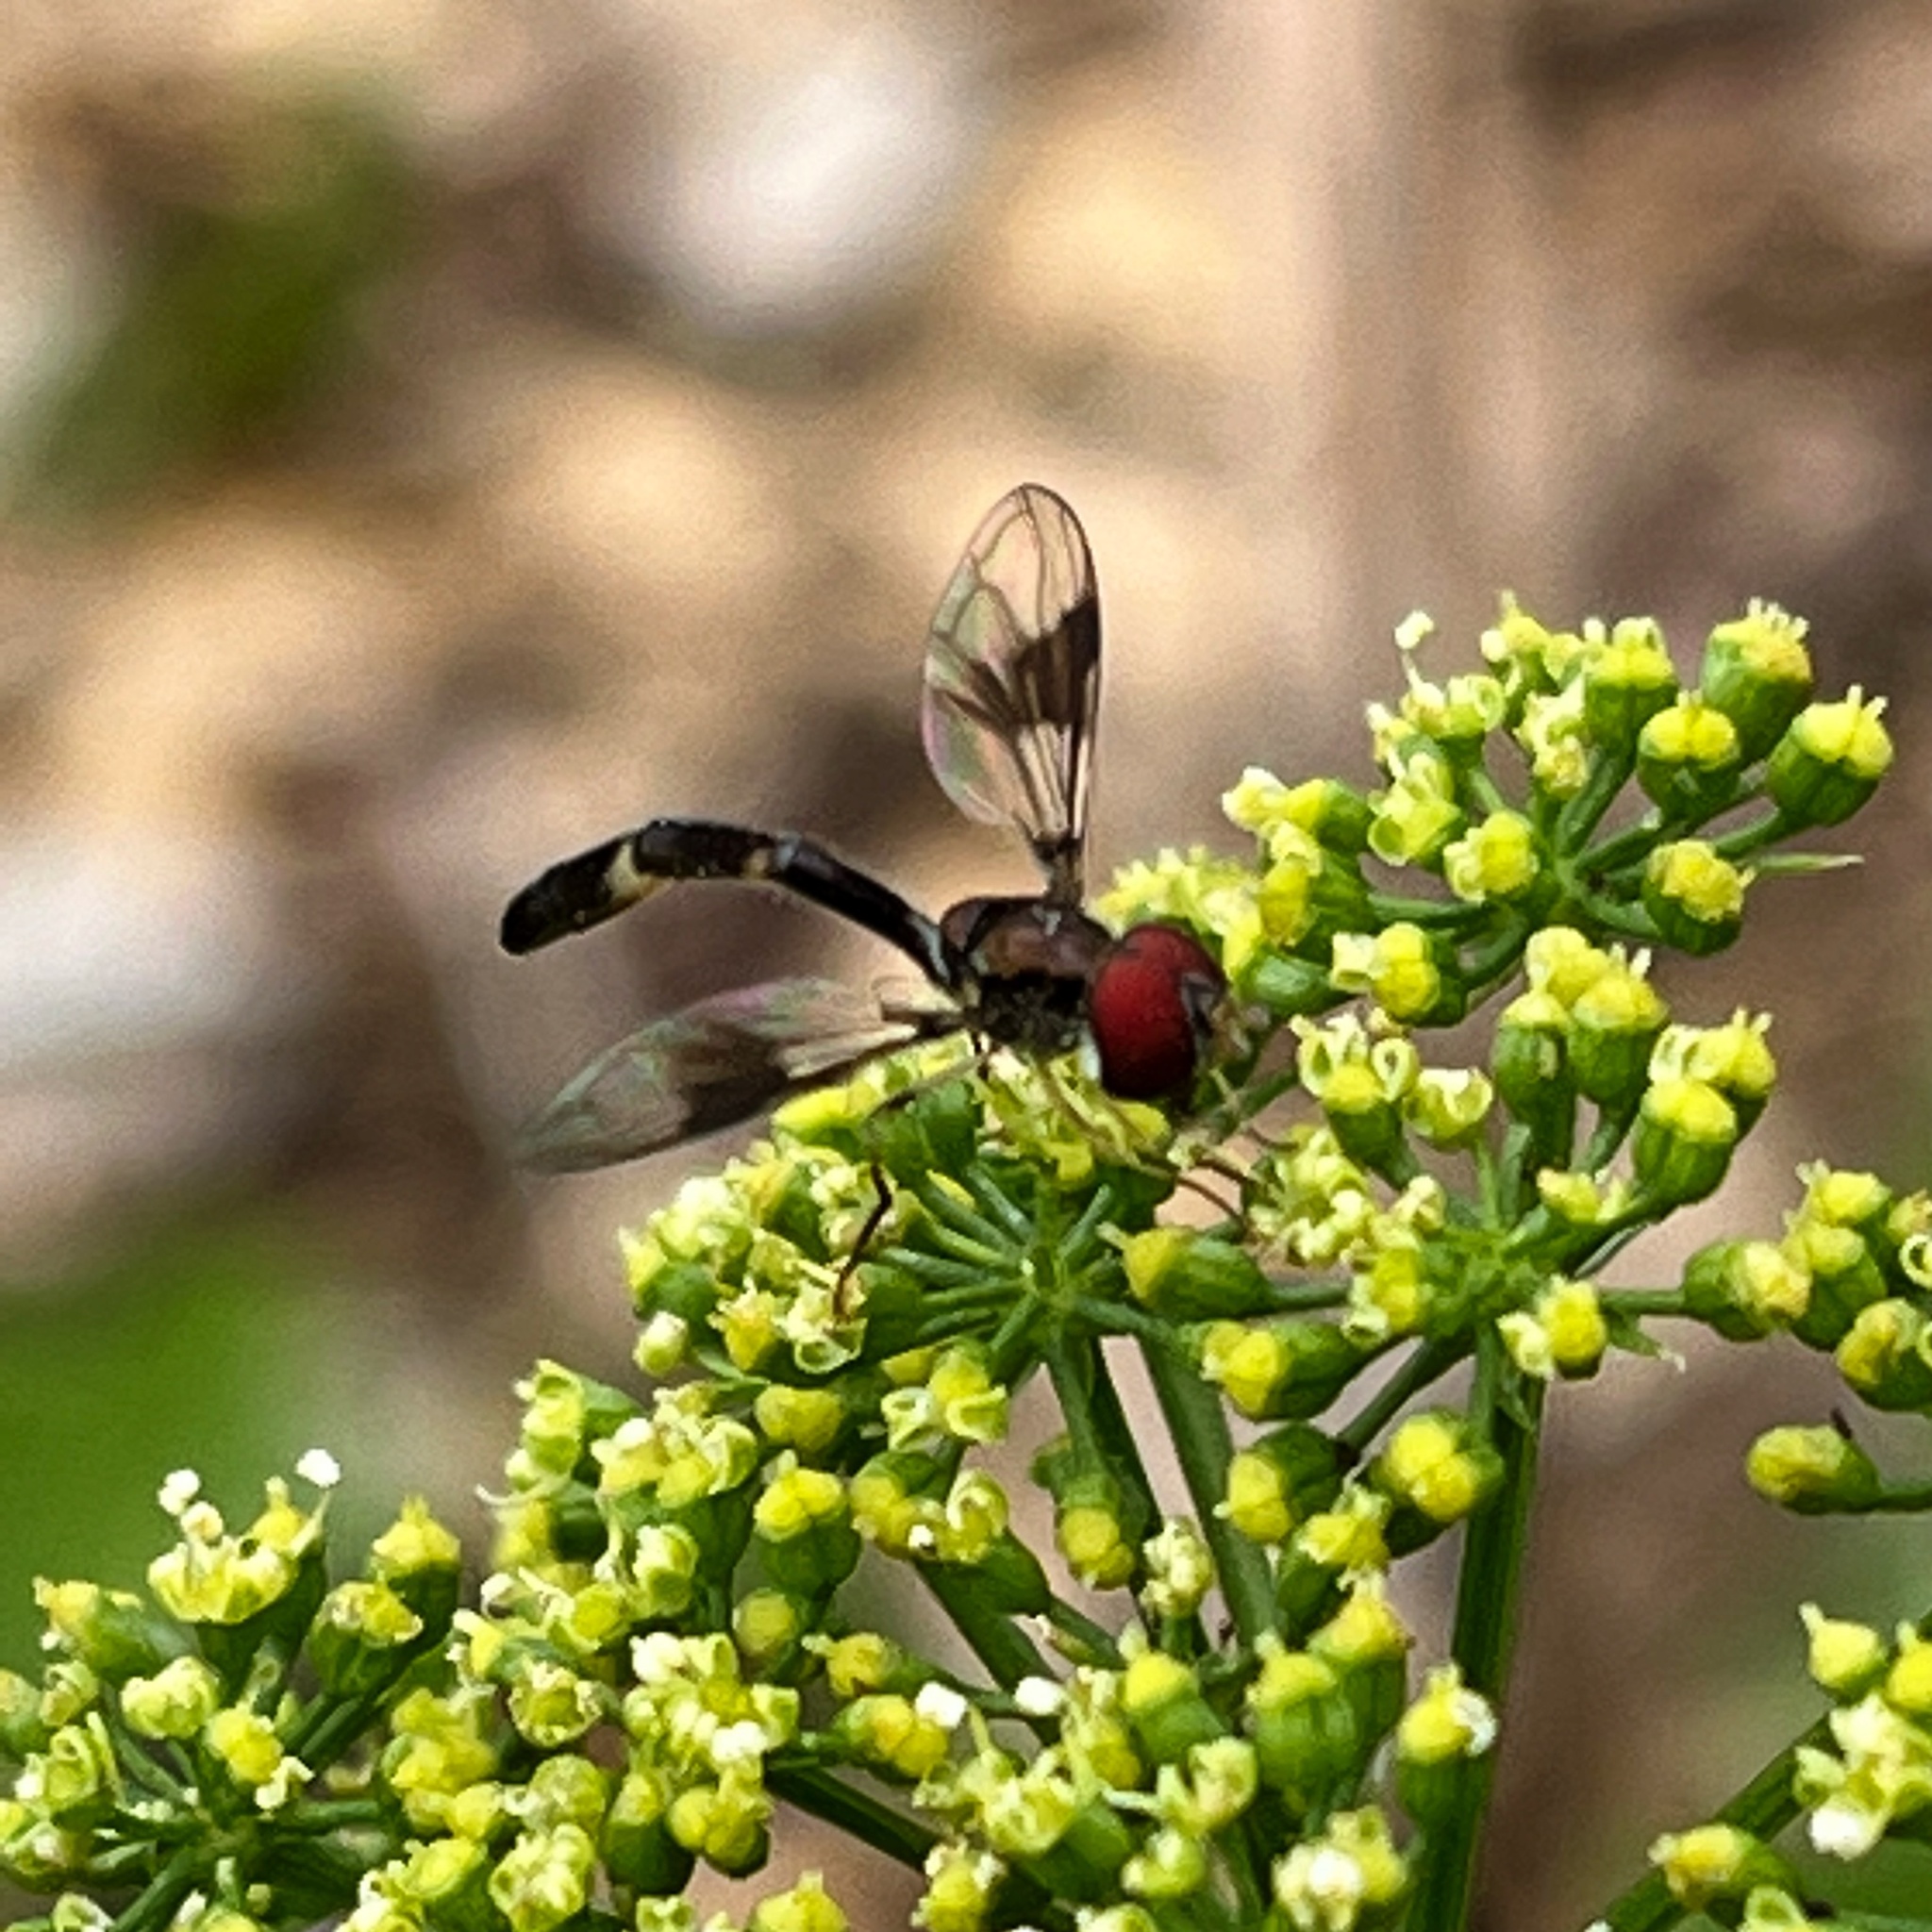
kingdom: Animalia
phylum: Arthropoda
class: Insecta
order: Diptera
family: Syrphidae
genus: Hypocritanus
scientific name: Hypocritanus fascipennis
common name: Eastern band-winged hover fly
